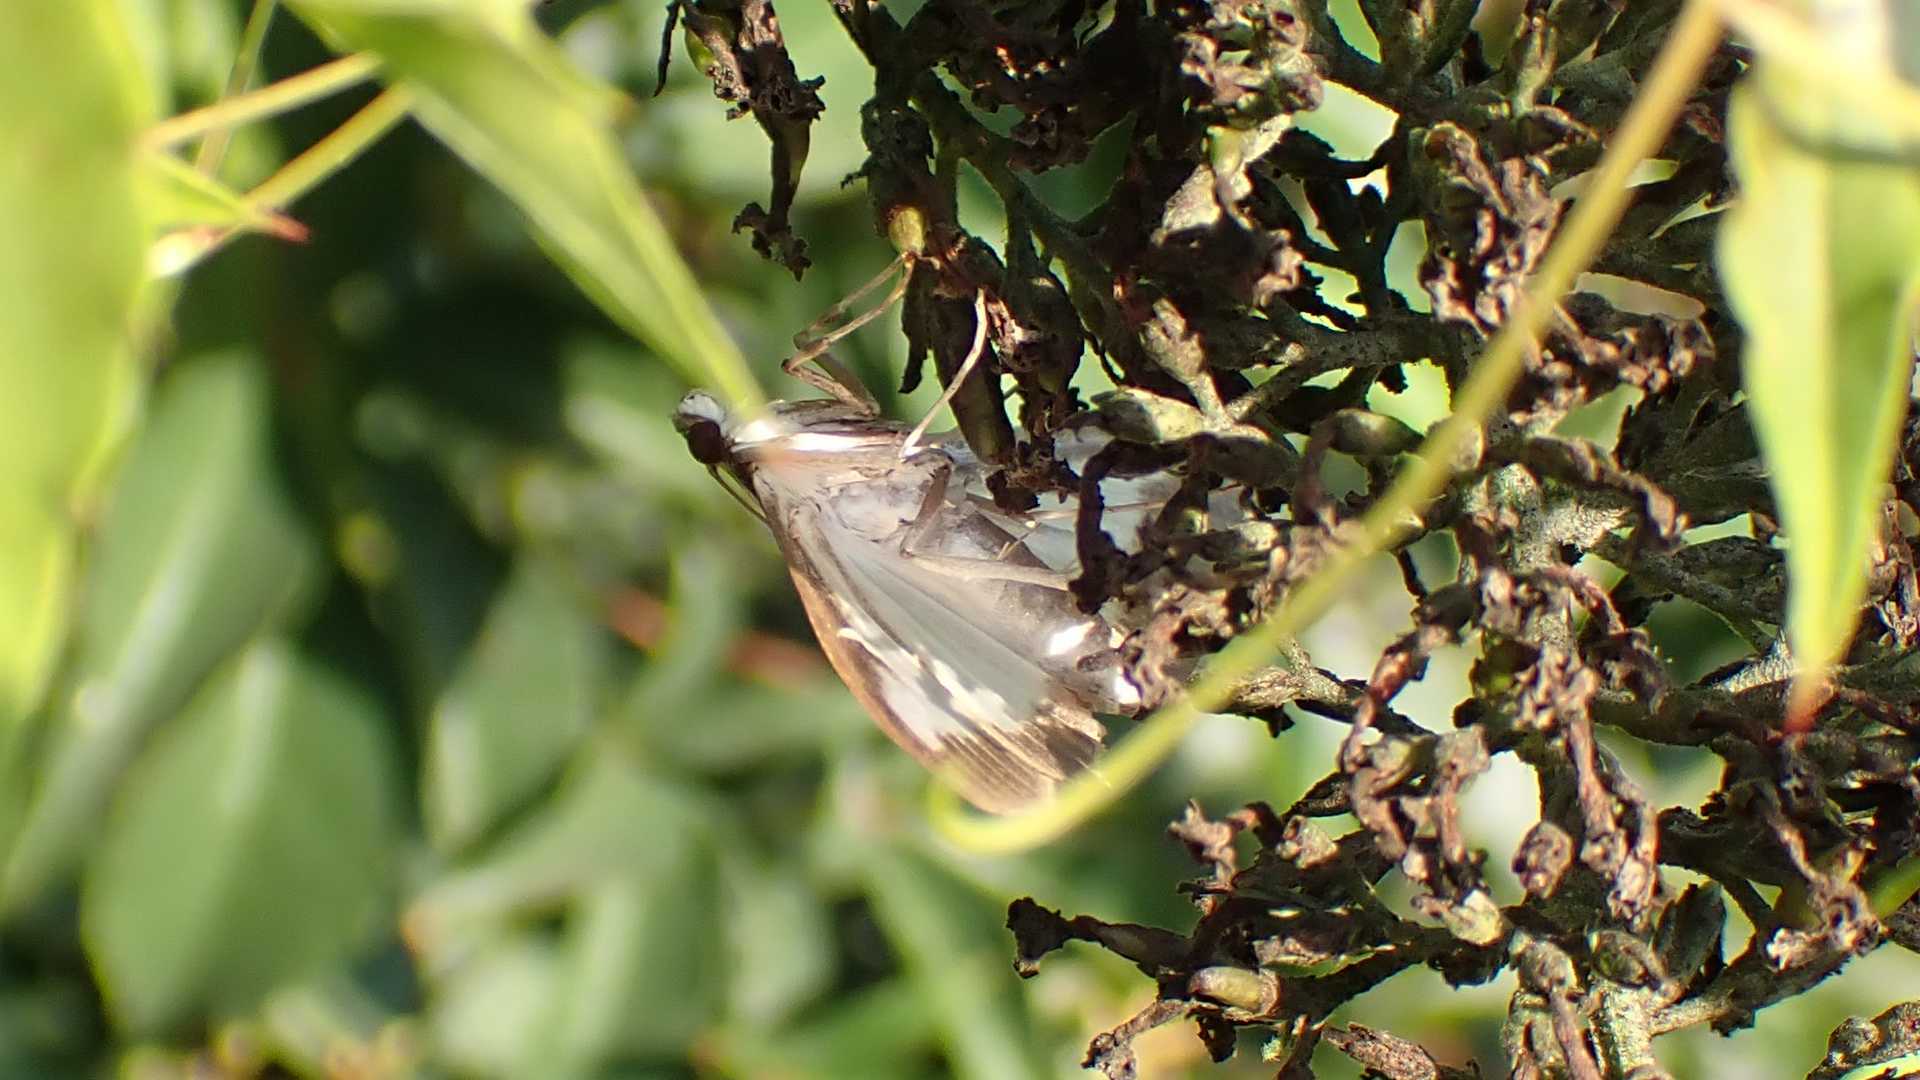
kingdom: Animalia
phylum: Arthropoda
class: Insecta
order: Lepidoptera
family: Crambidae
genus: Cydalima
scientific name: Cydalima perspectalis
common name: Box tree moth
